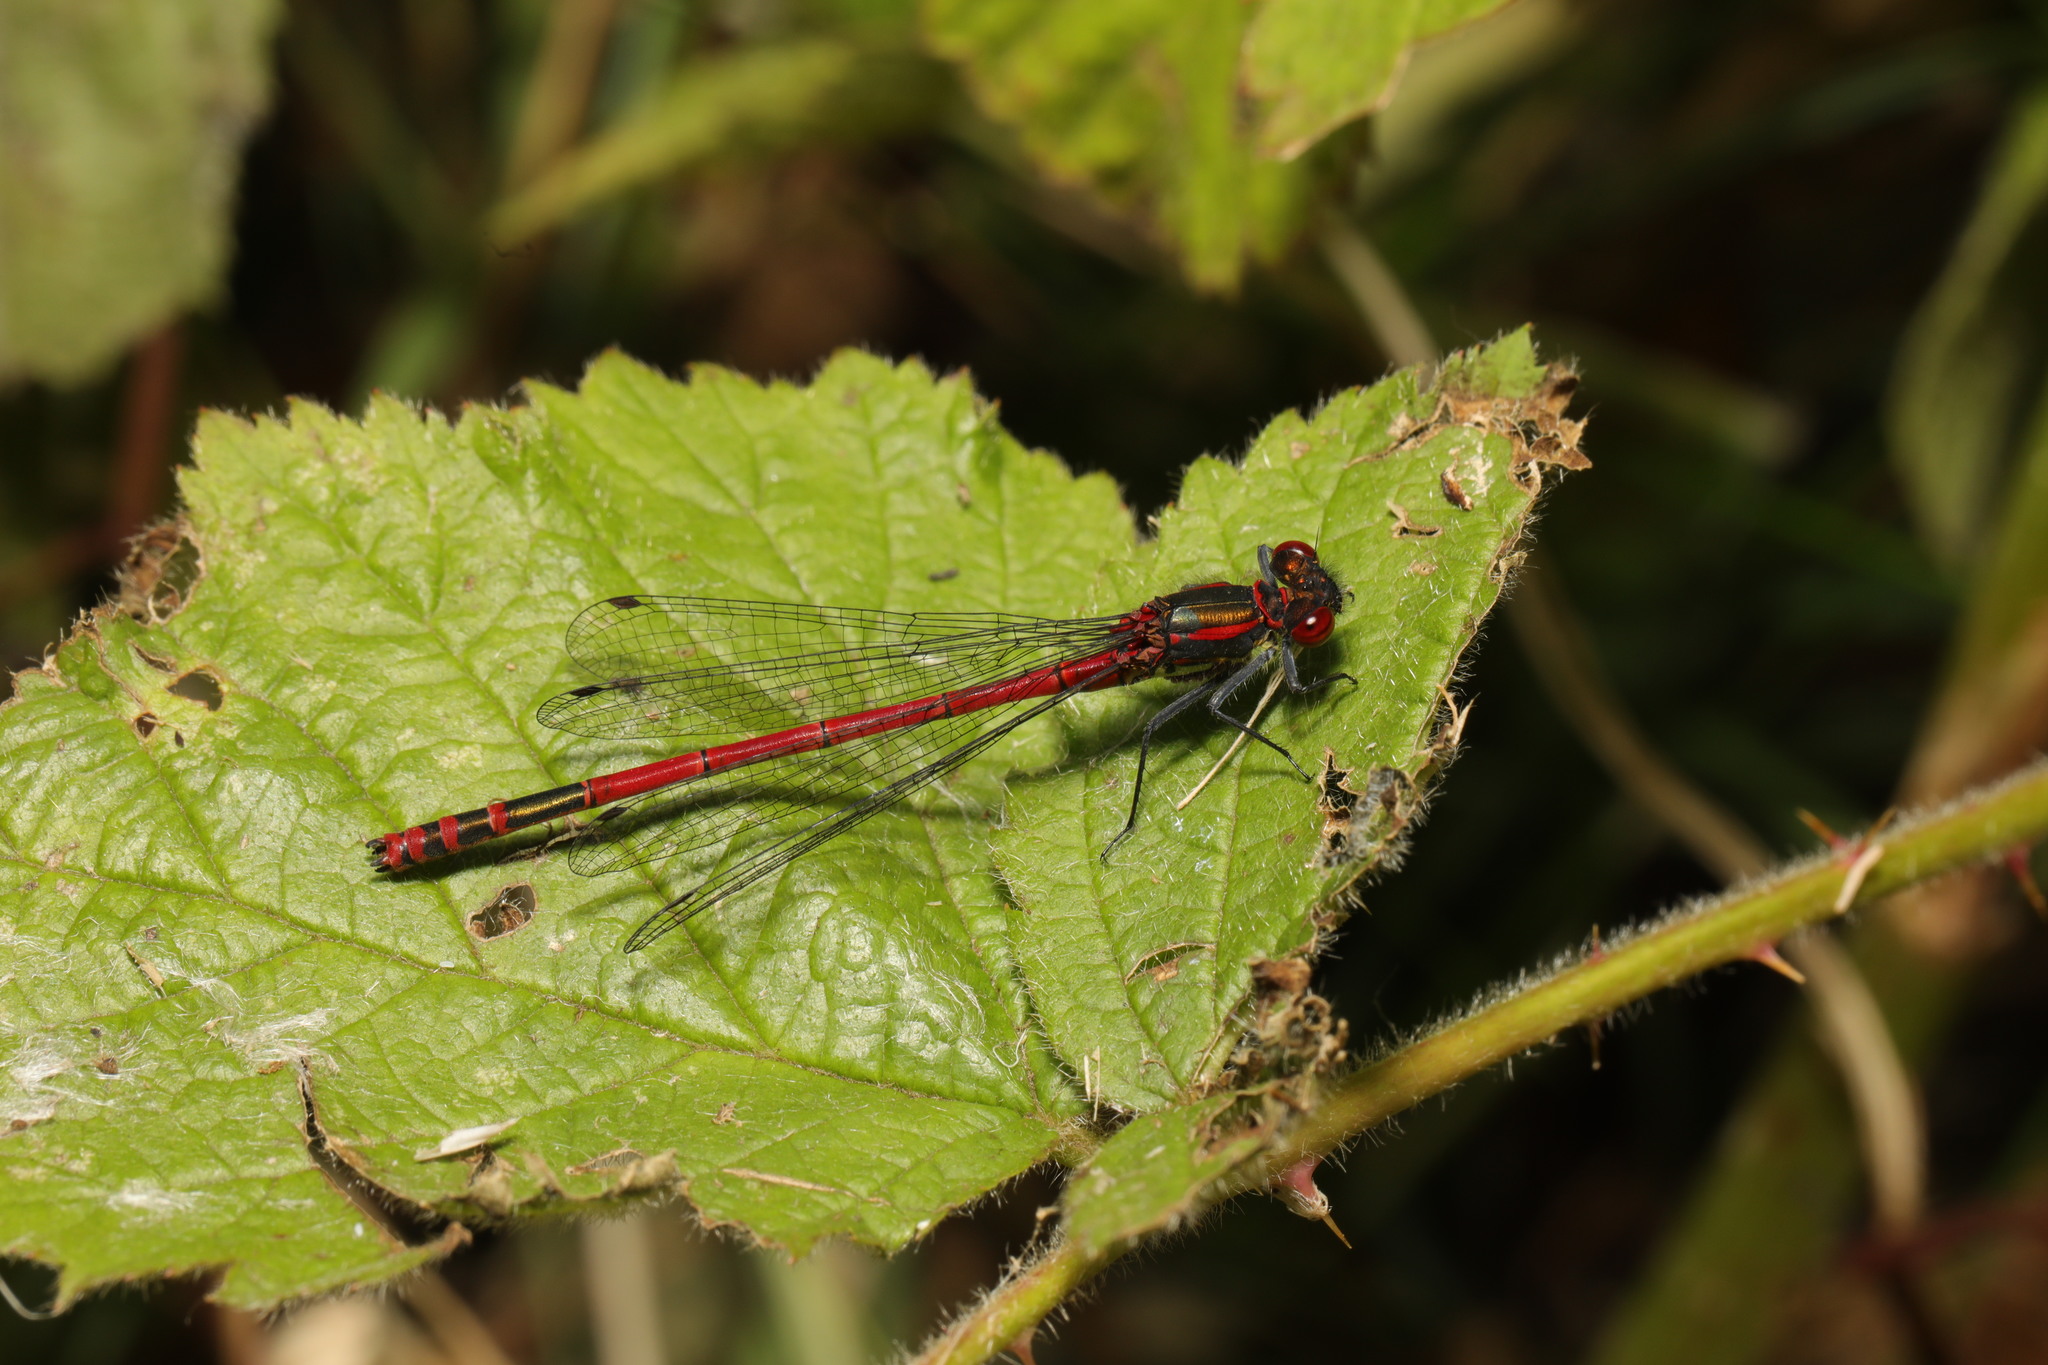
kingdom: Animalia
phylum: Arthropoda
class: Insecta
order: Odonata
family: Coenagrionidae
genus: Pyrrhosoma
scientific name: Pyrrhosoma nymphula
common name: Large red damsel
